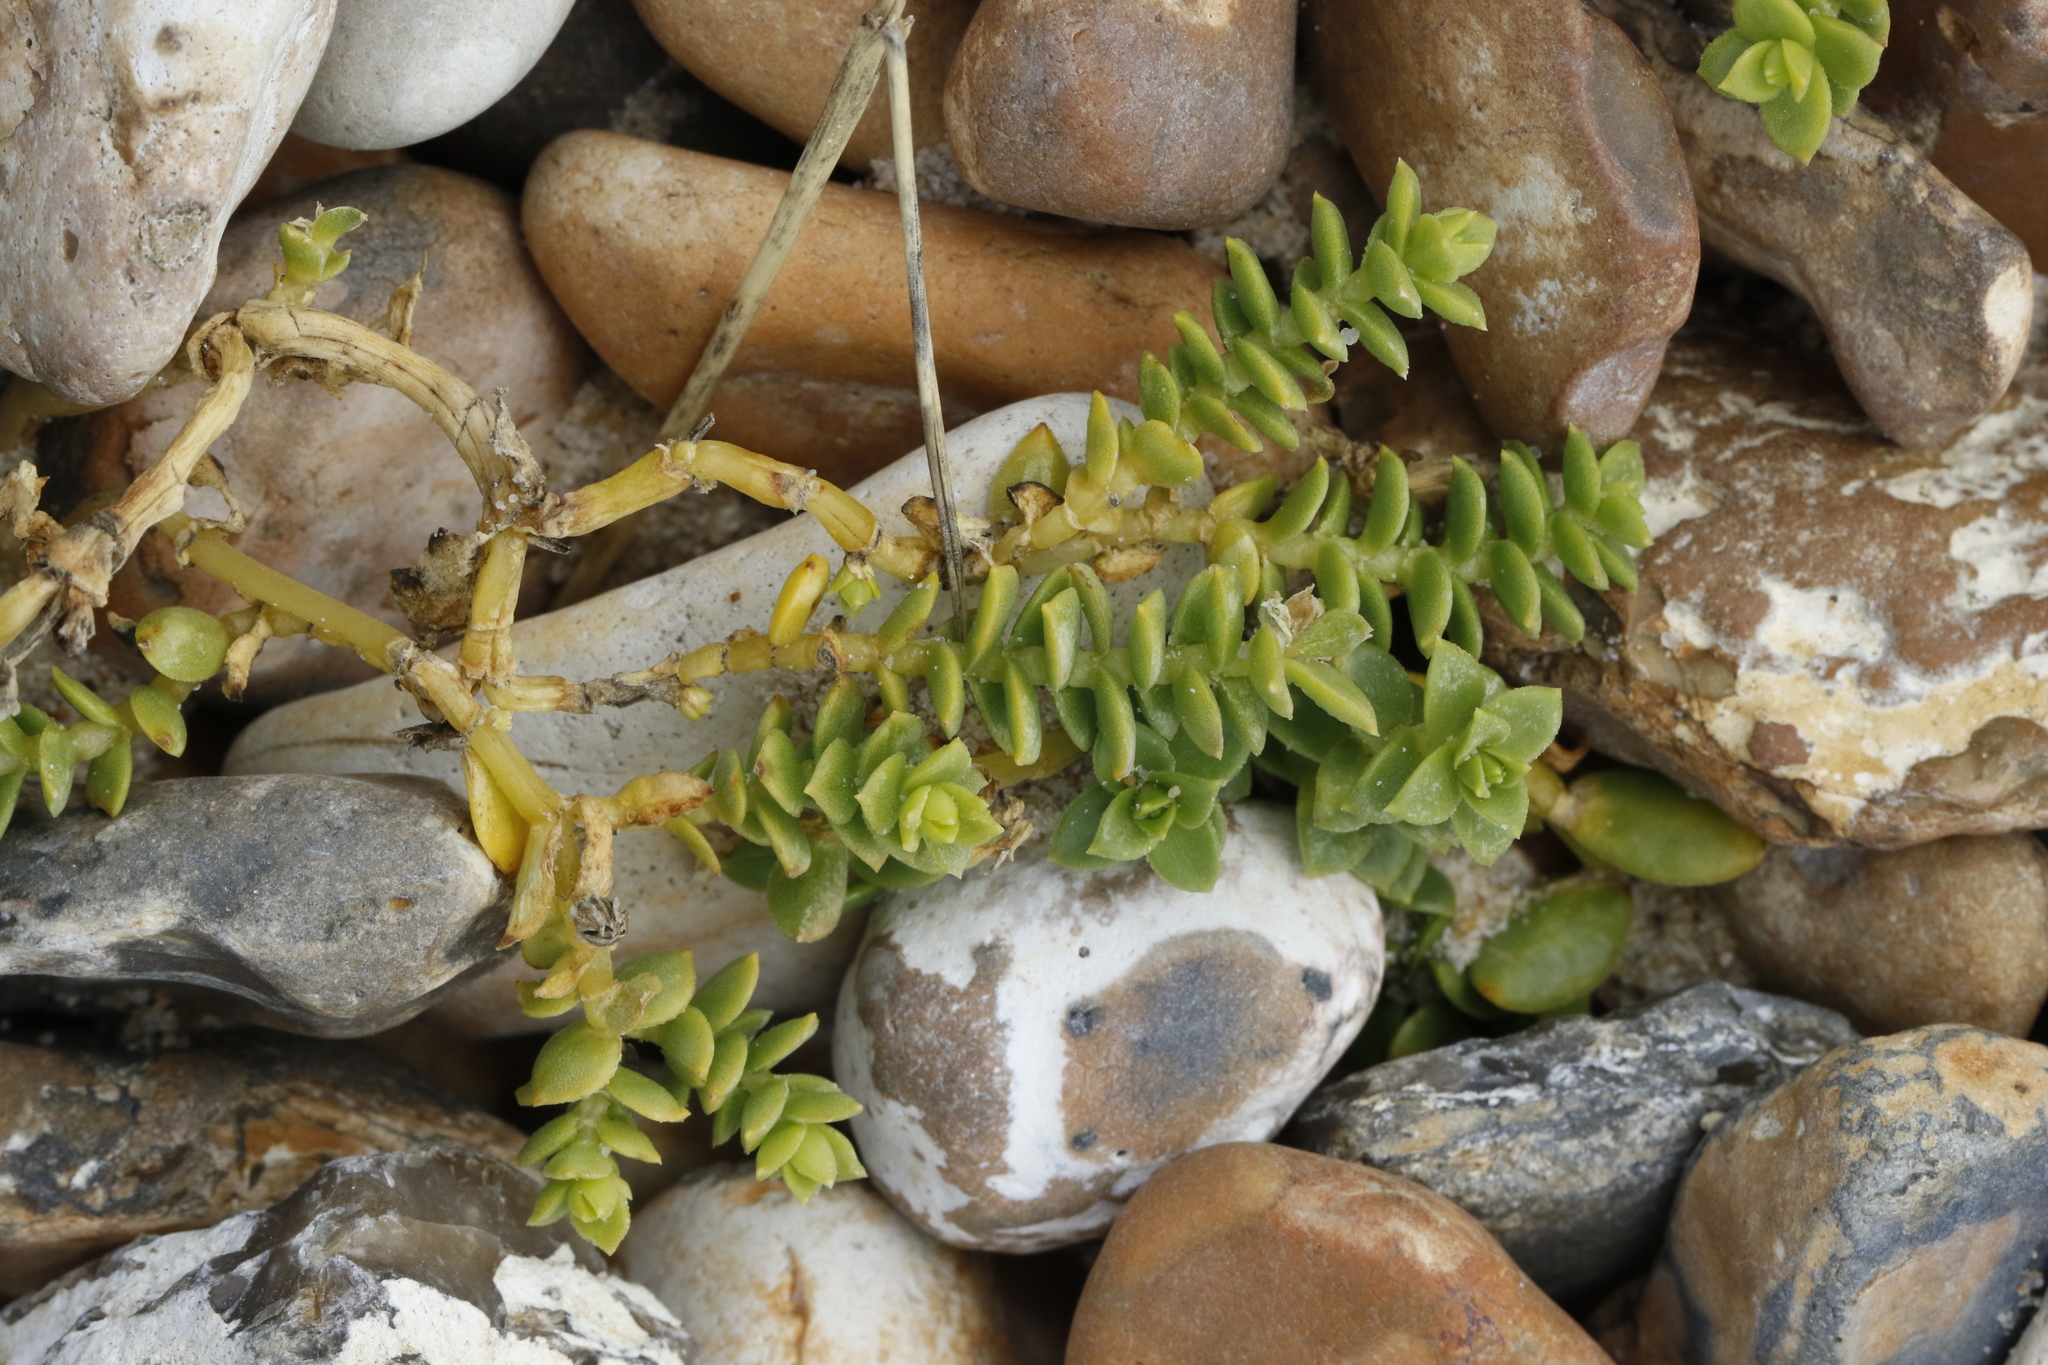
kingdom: Plantae
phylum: Tracheophyta
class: Magnoliopsida
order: Caryophyllales
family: Caryophyllaceae
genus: Honckenya
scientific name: Honckenya peploides
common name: Sea sandwort
